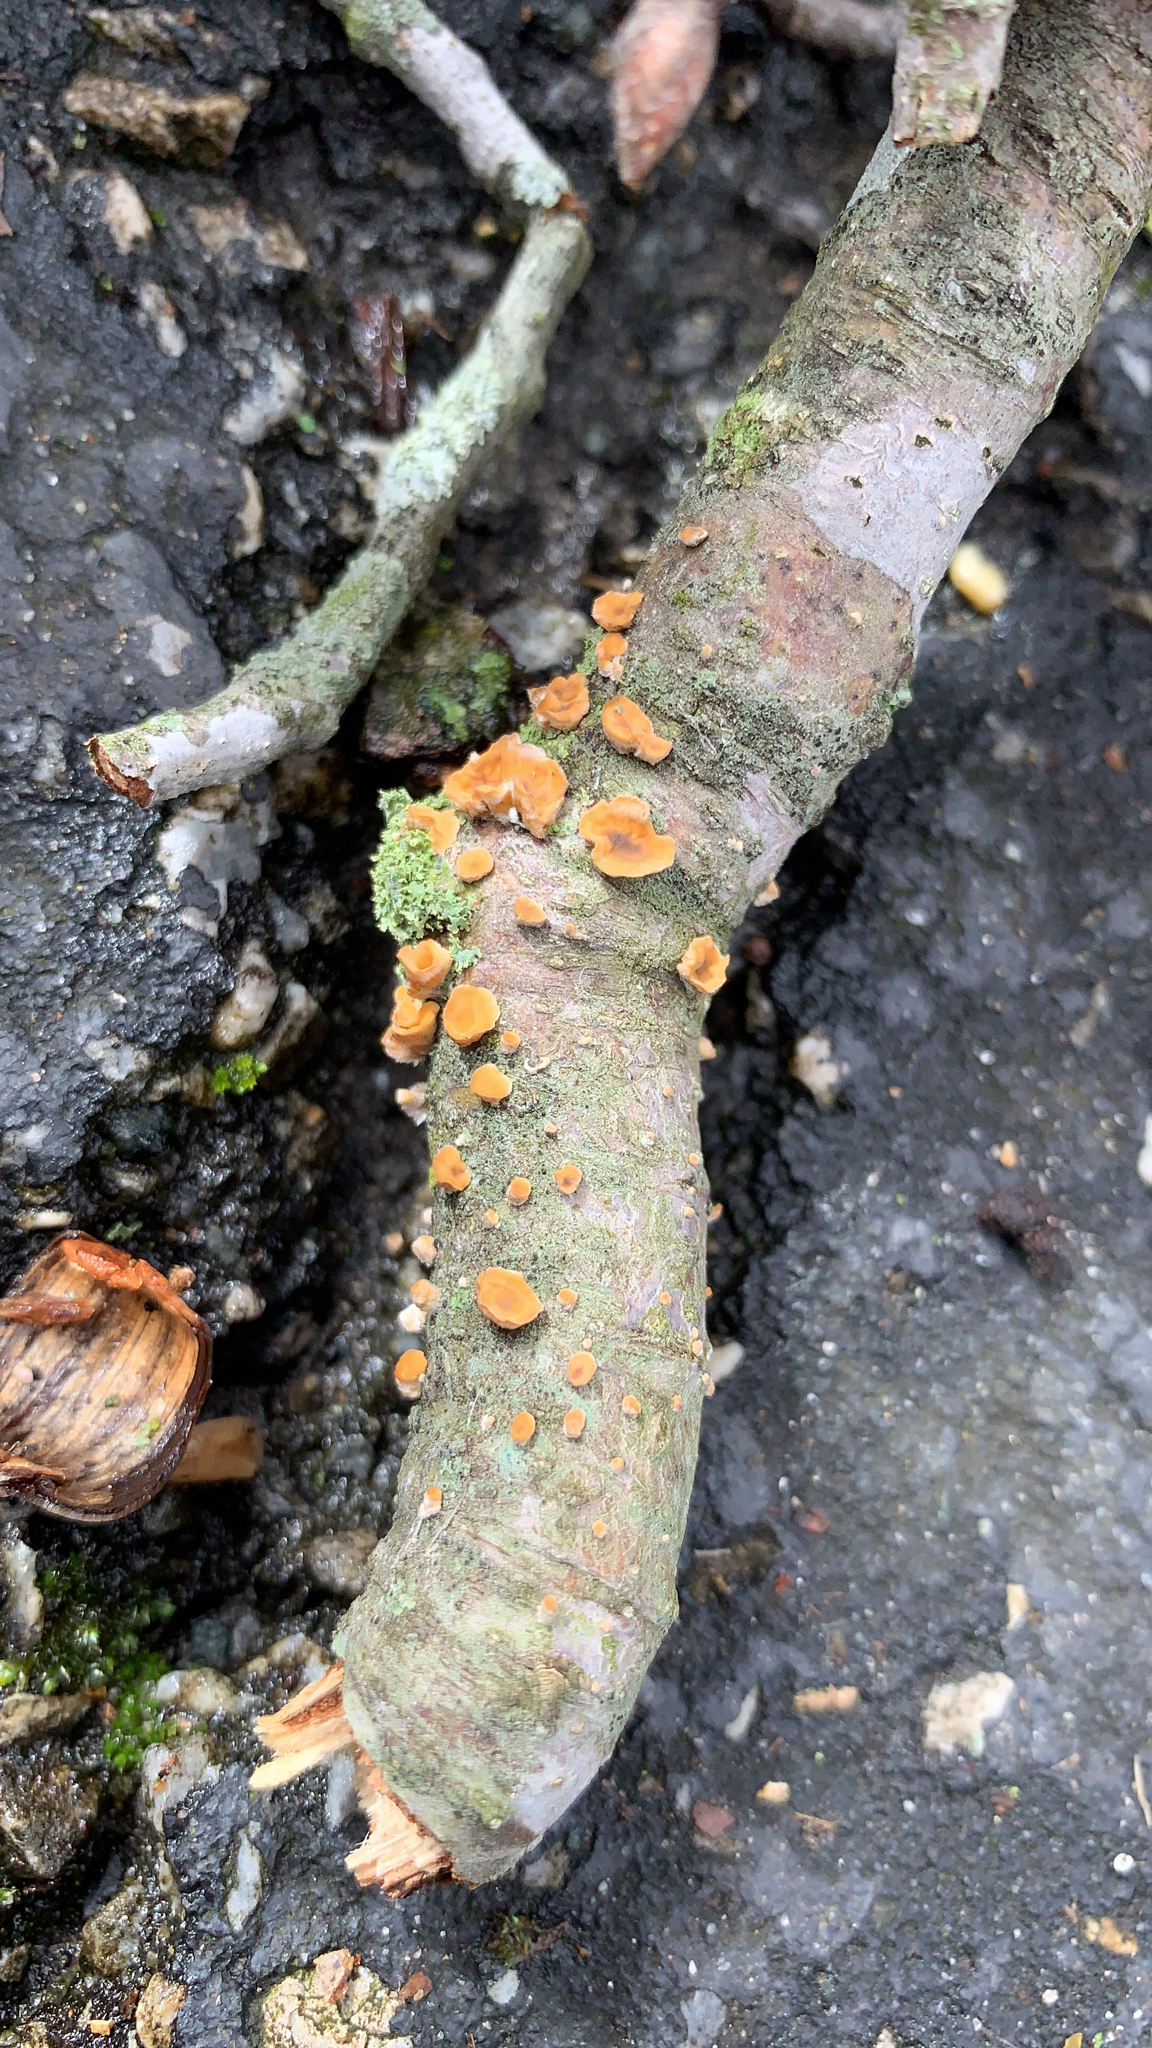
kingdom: Fungi
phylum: Basidiomycota
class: Agaricomycetes
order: Russulales
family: Stereaceae
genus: Stereum
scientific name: Stereum
